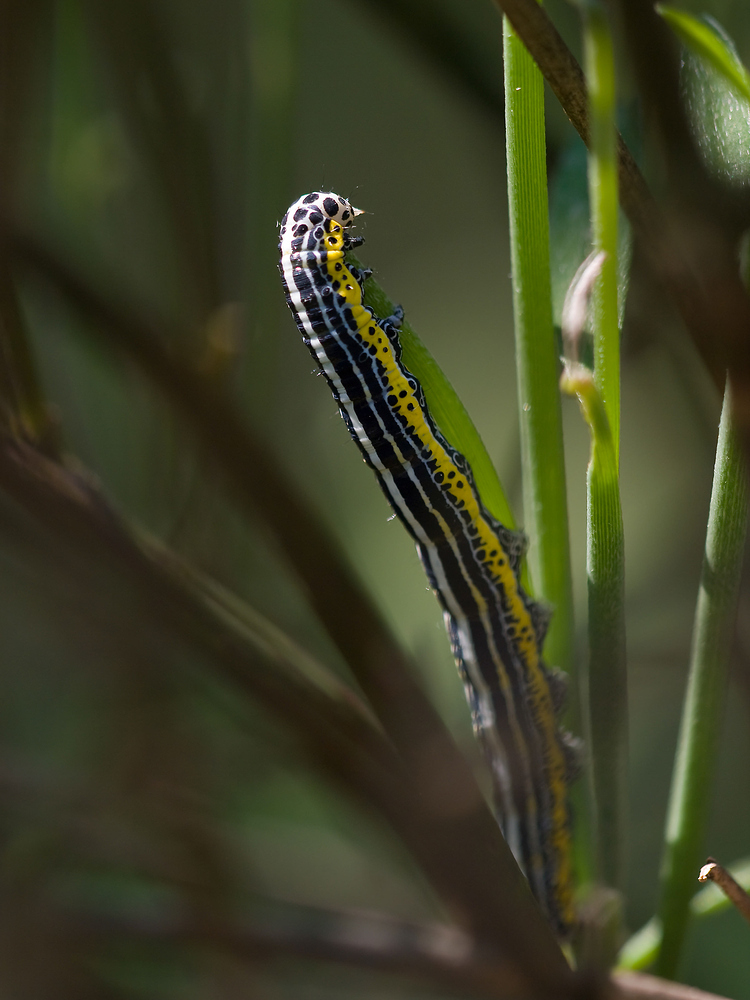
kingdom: Animalia
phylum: Arthropoda
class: Insecta
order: Lepidoptera
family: Erebidae
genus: Apopestes
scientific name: Apopestes spectrum
